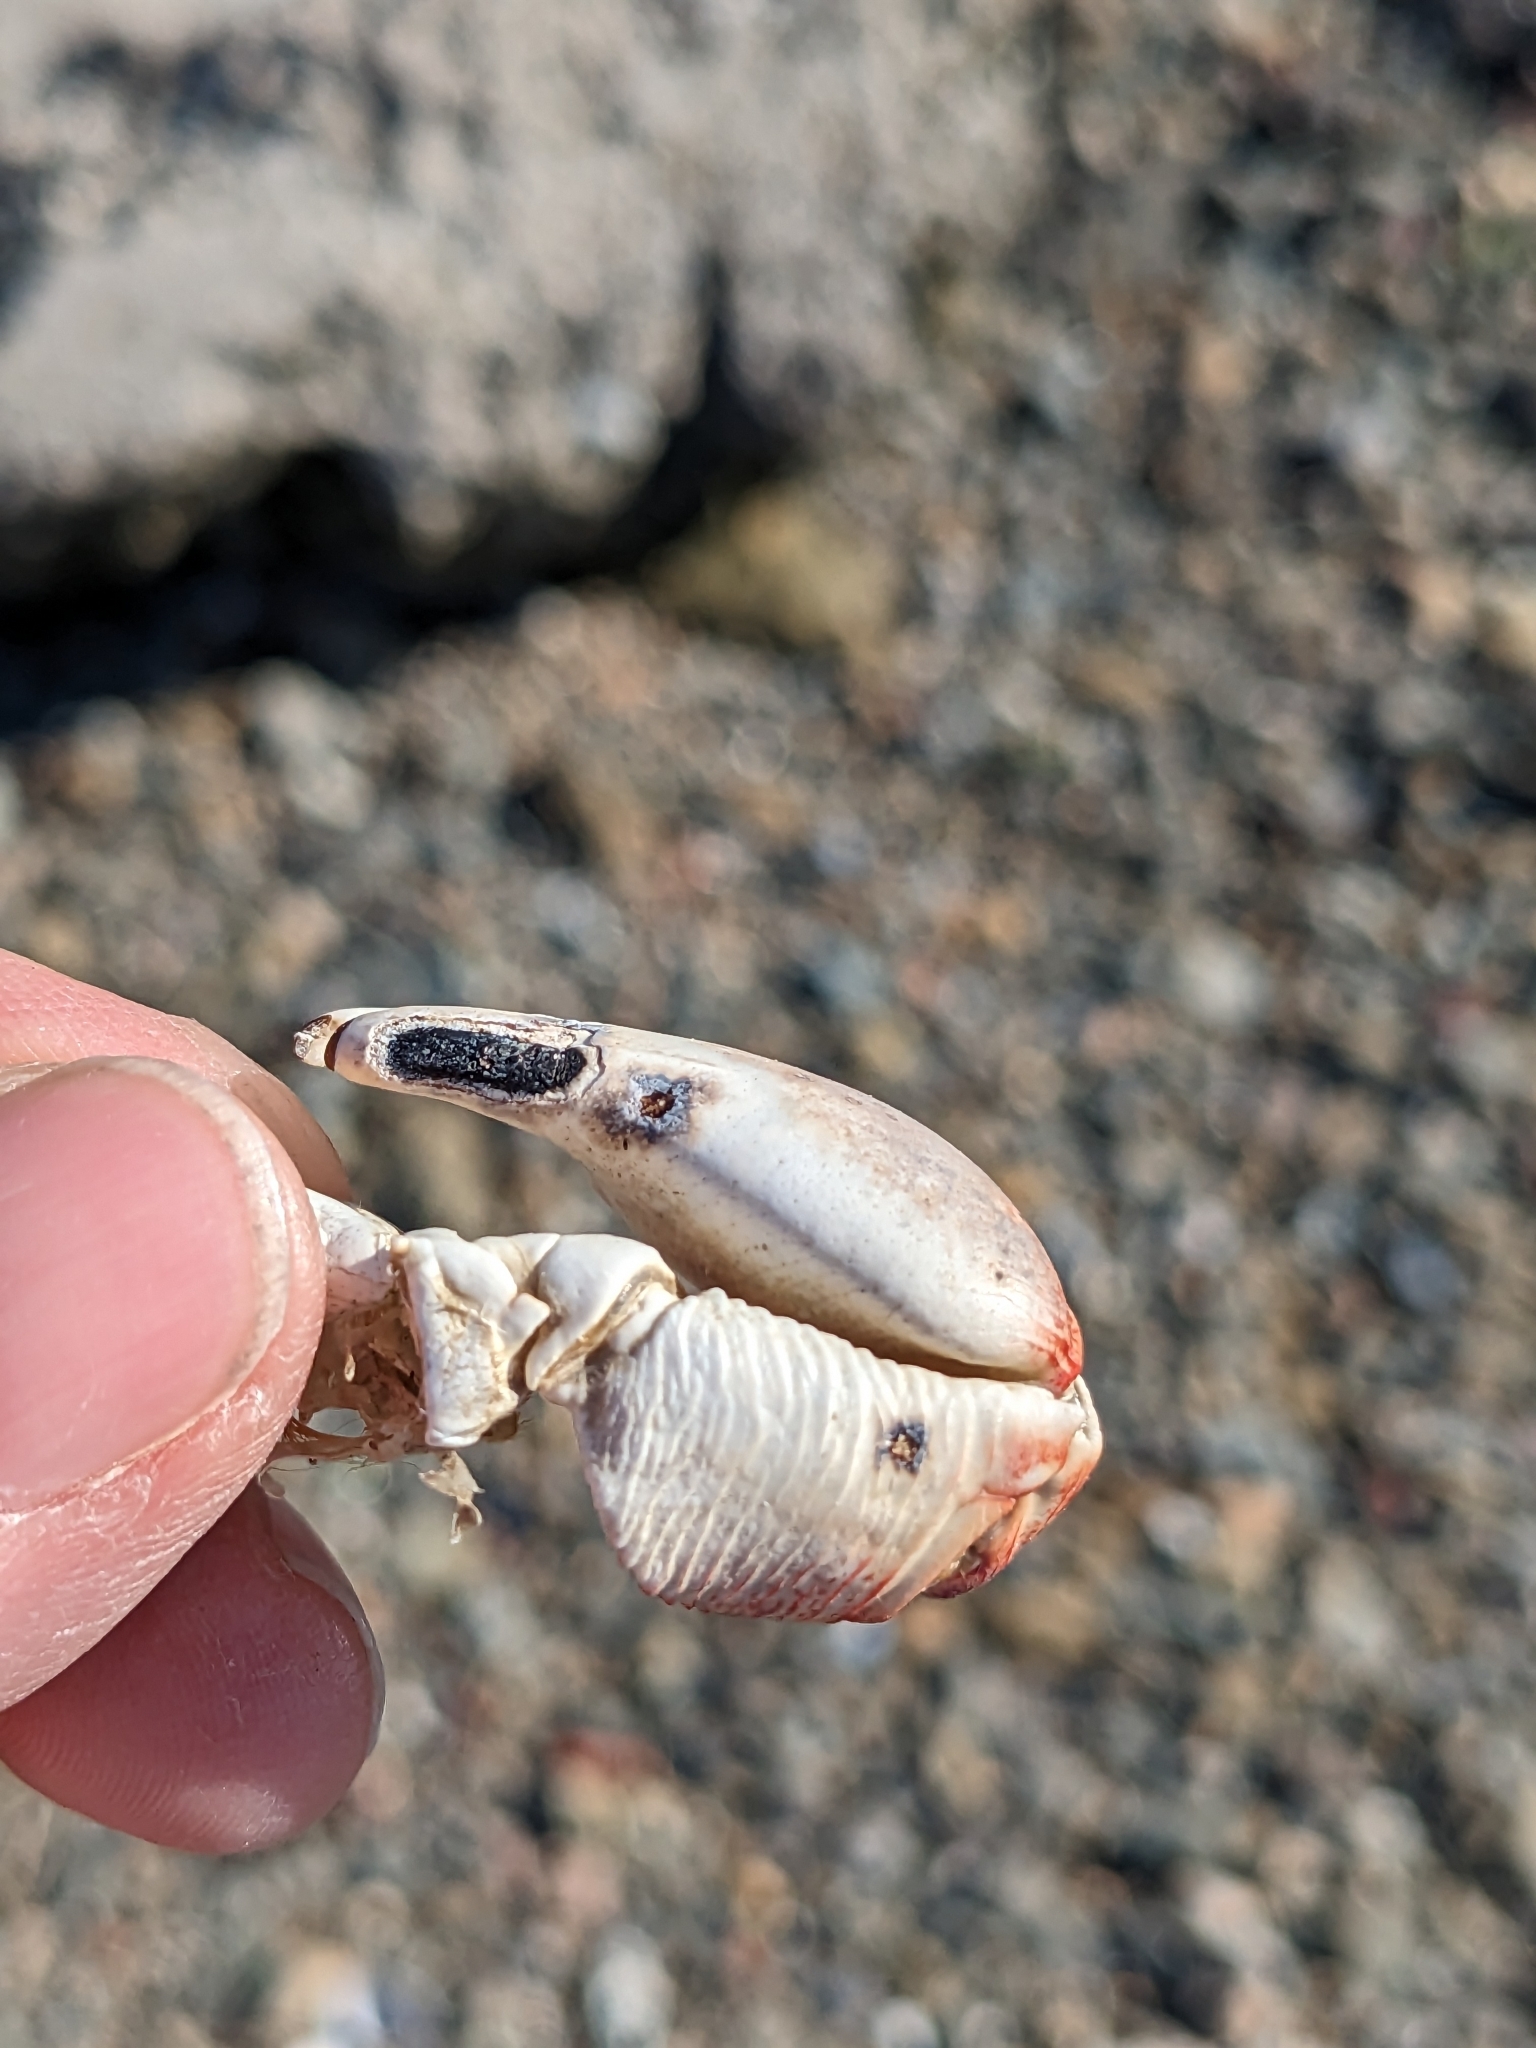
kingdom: Animalia
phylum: Arthropoda
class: Malacostraca
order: Decapoda
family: Grapsidae
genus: Pachygrapsus
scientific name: Pachygrapsus crassipes
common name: Striped shore crab
